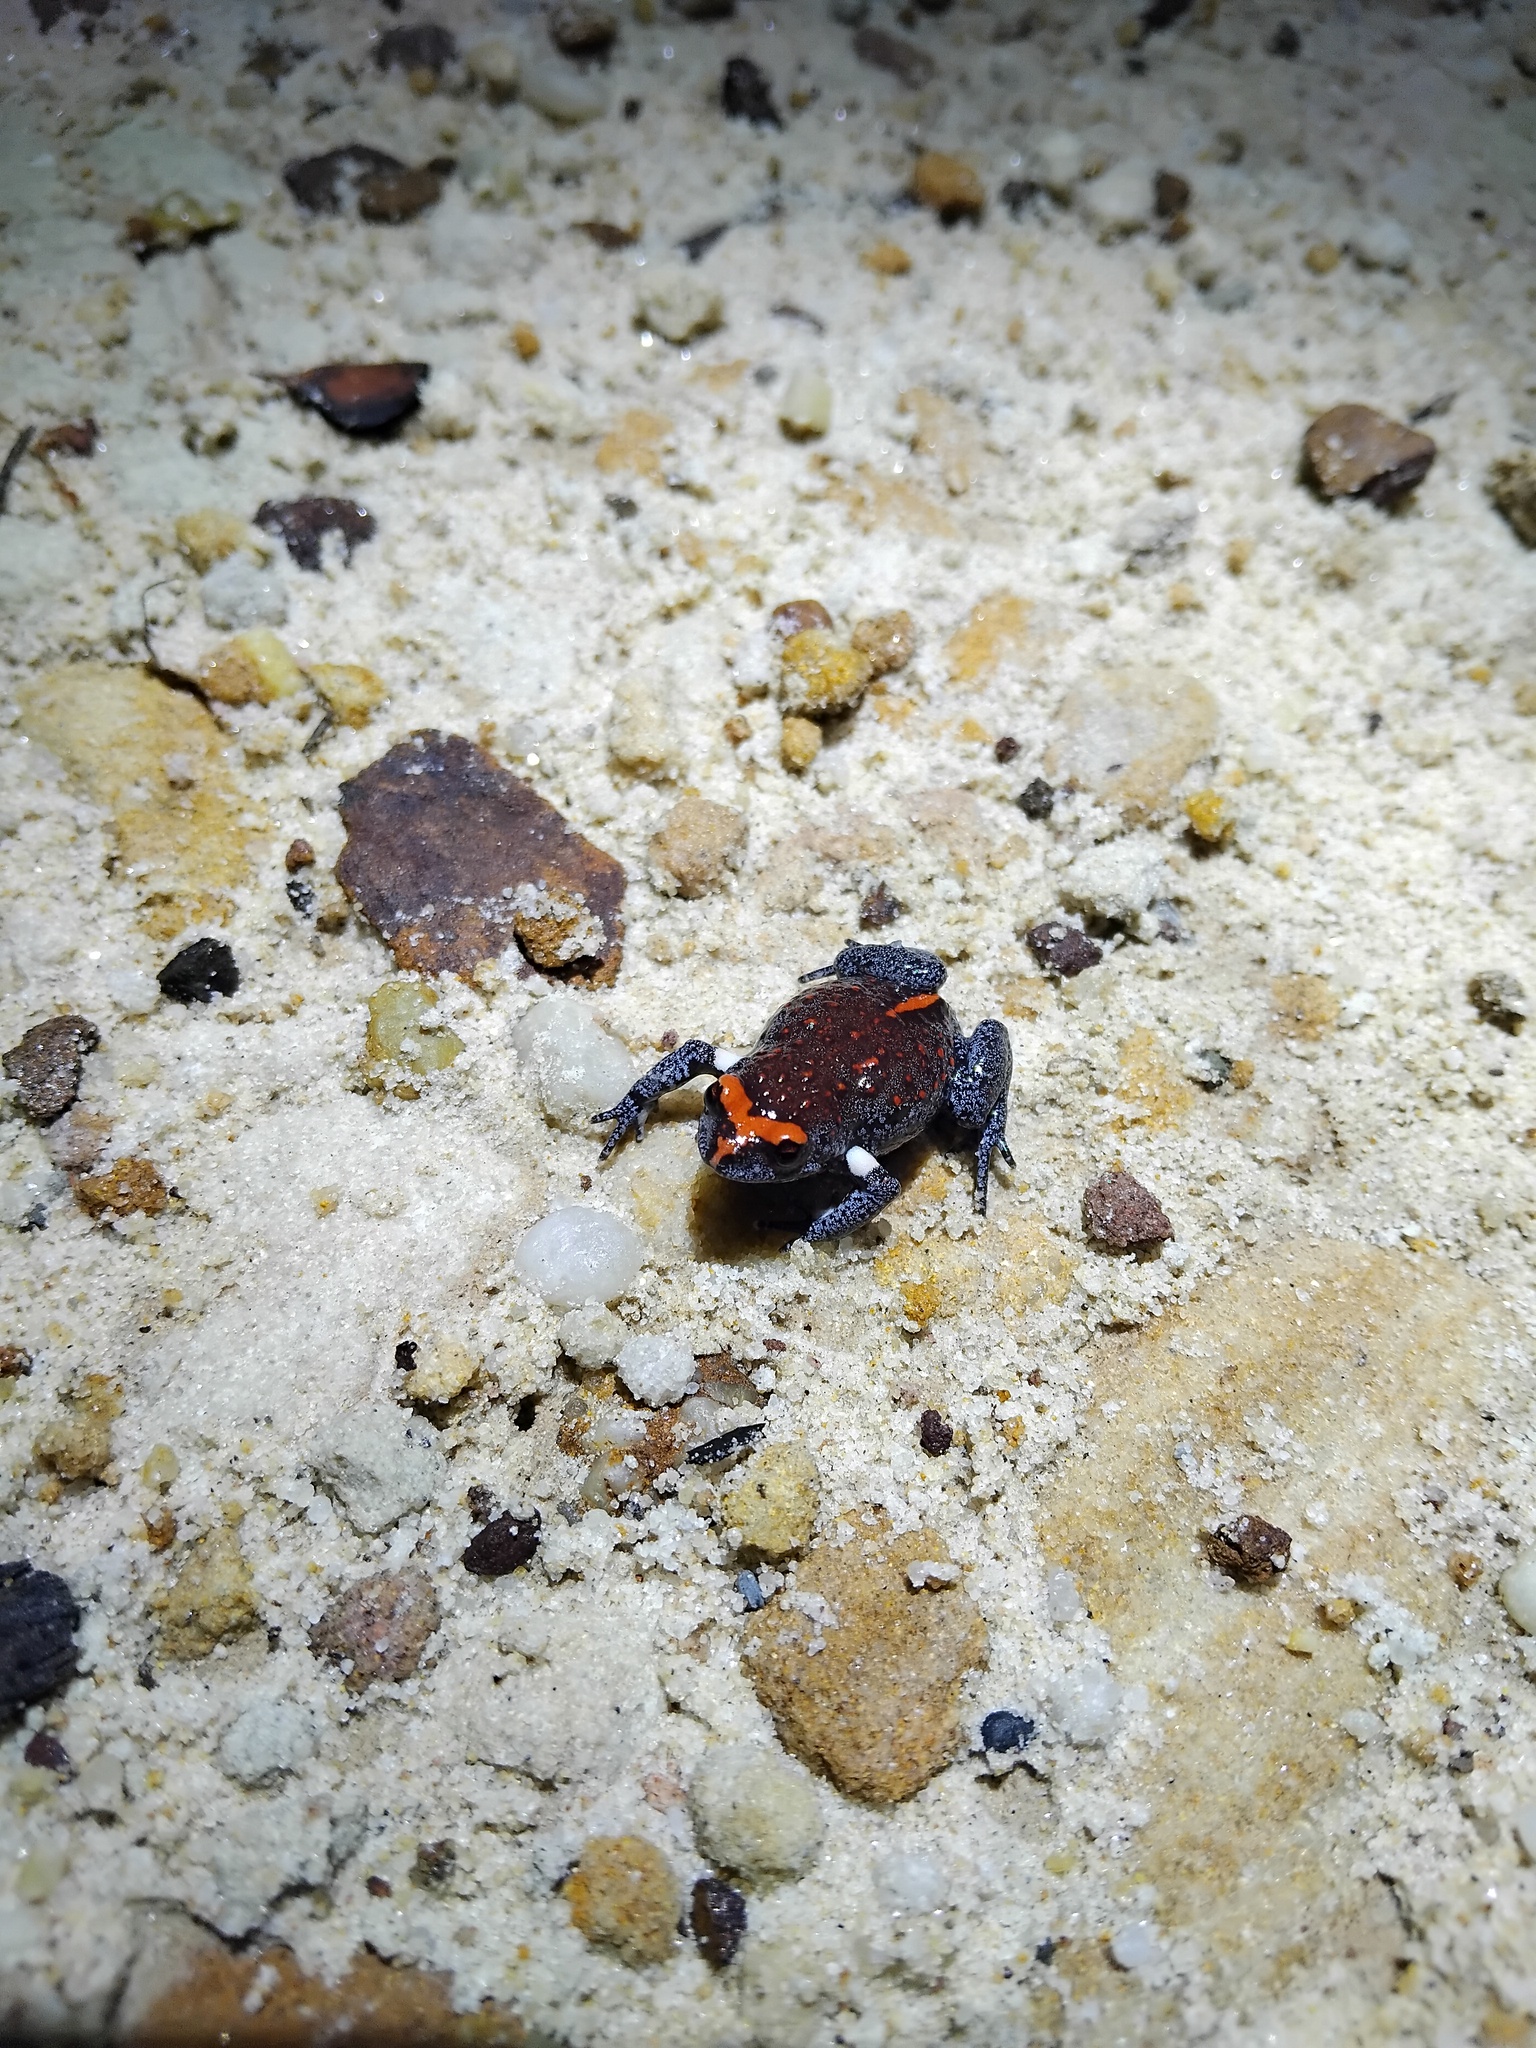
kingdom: Animalia
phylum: Chordata
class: Amphibia
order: Anura
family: Myobatrachidae
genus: Pseudophryne
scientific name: Pseudophryne australis
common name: Red-crowned toadlet
